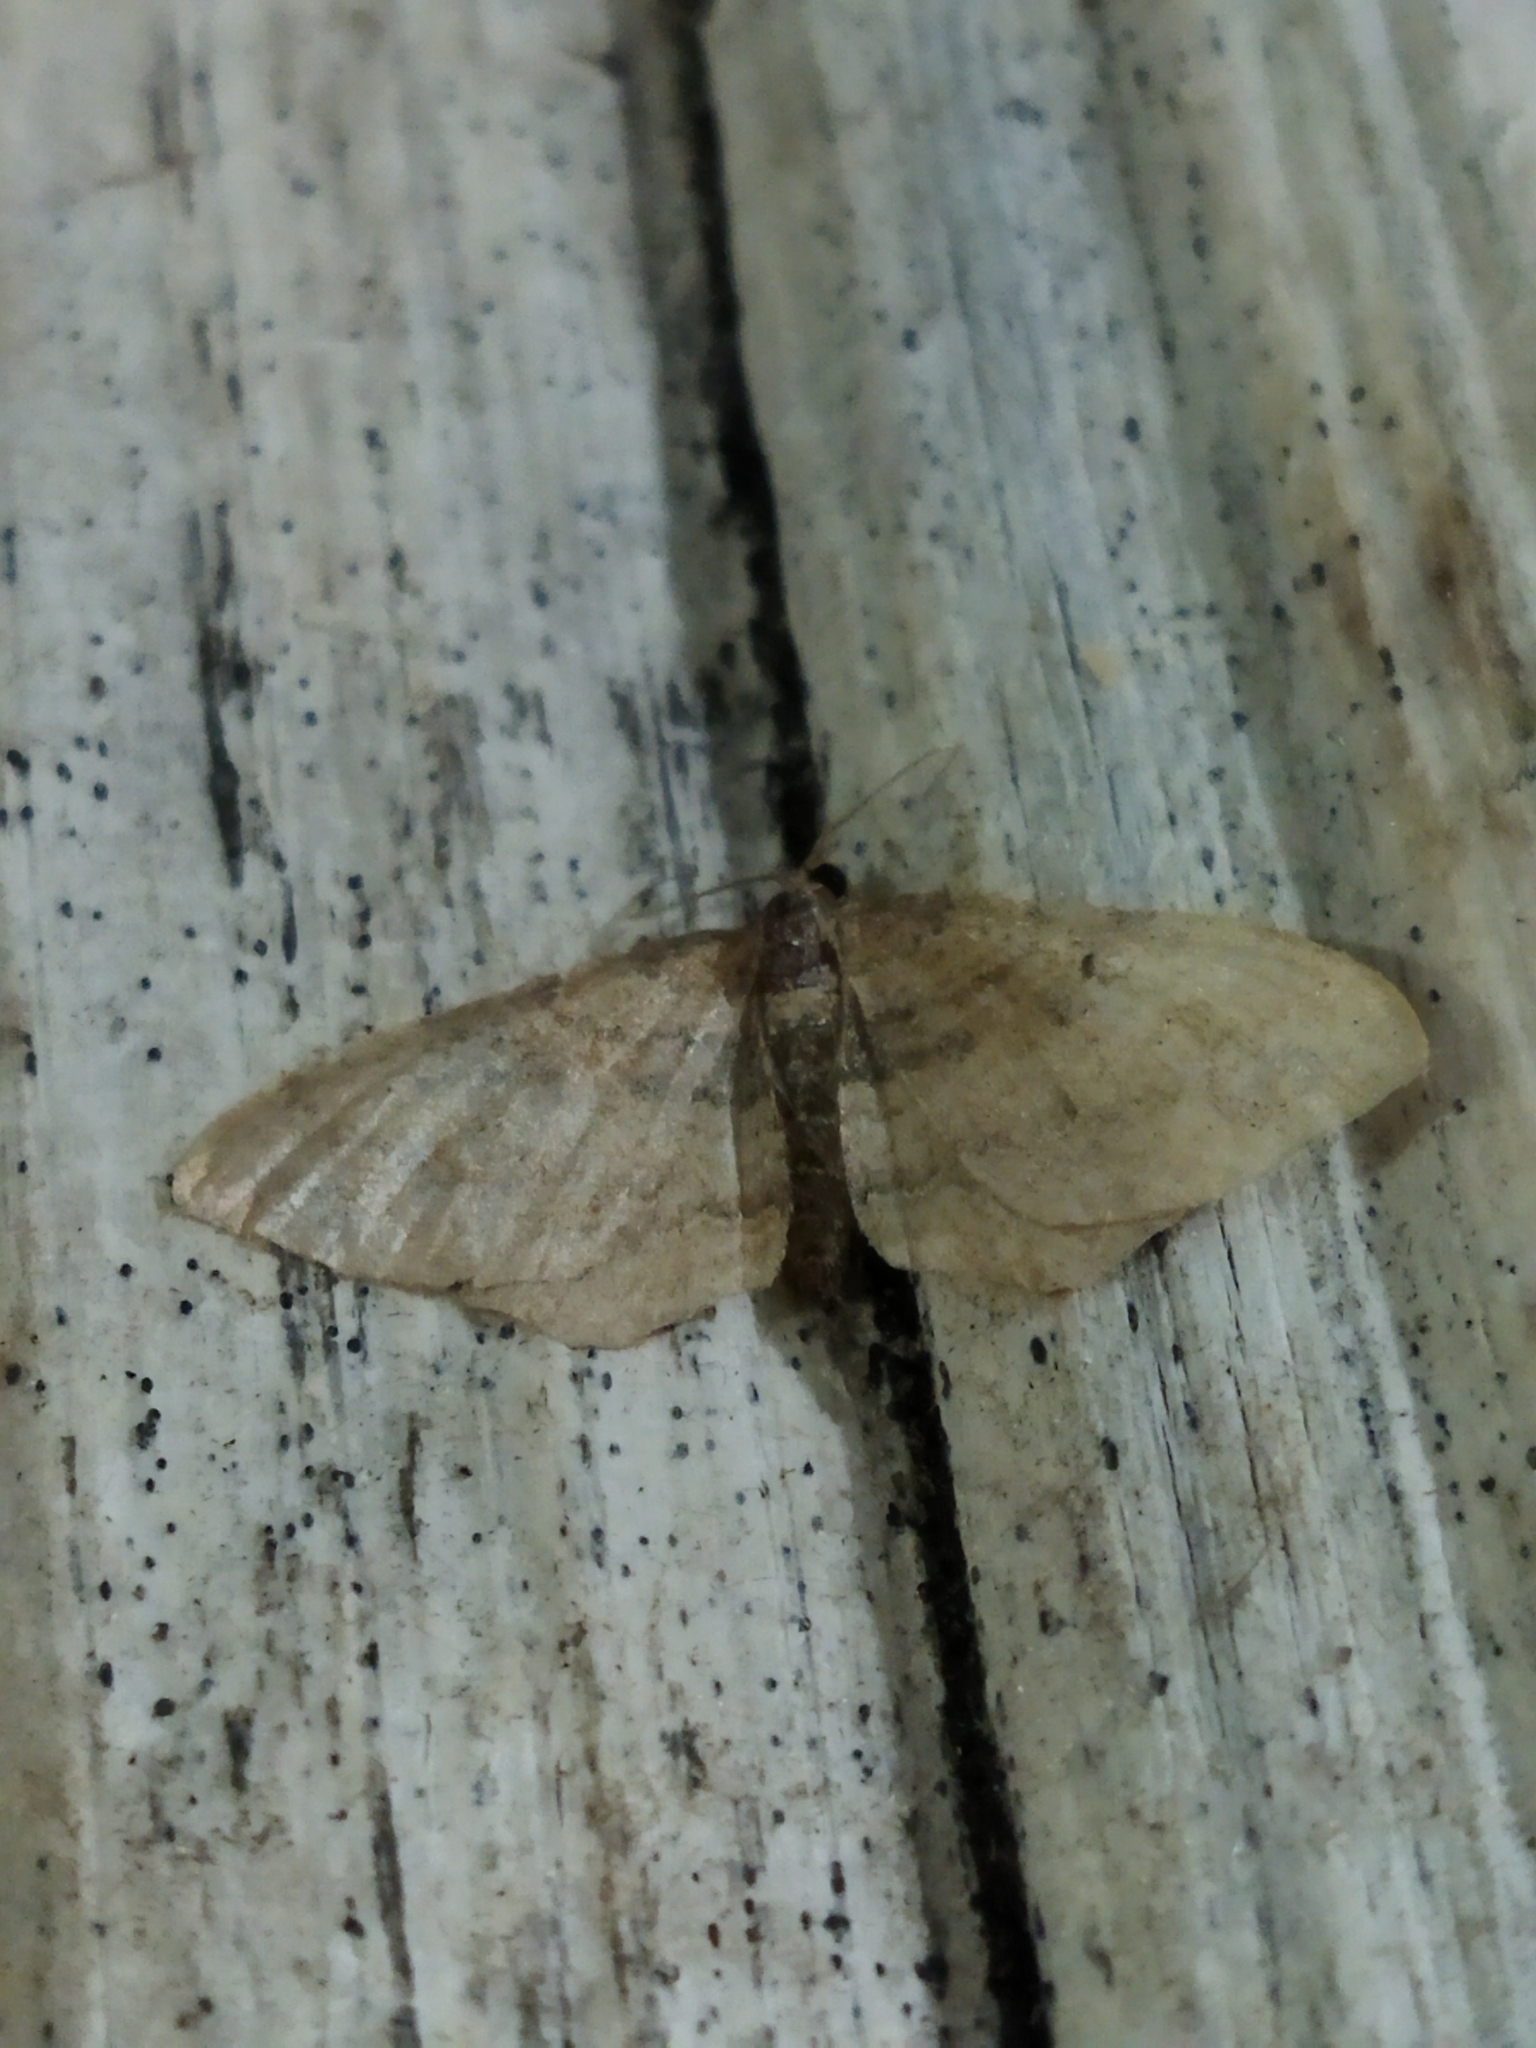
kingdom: Animalia
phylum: Arthropoda
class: Insecta
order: Lepidoptera
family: Geometridae
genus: Orthonama
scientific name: Orthonama obstipata
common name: The gem
